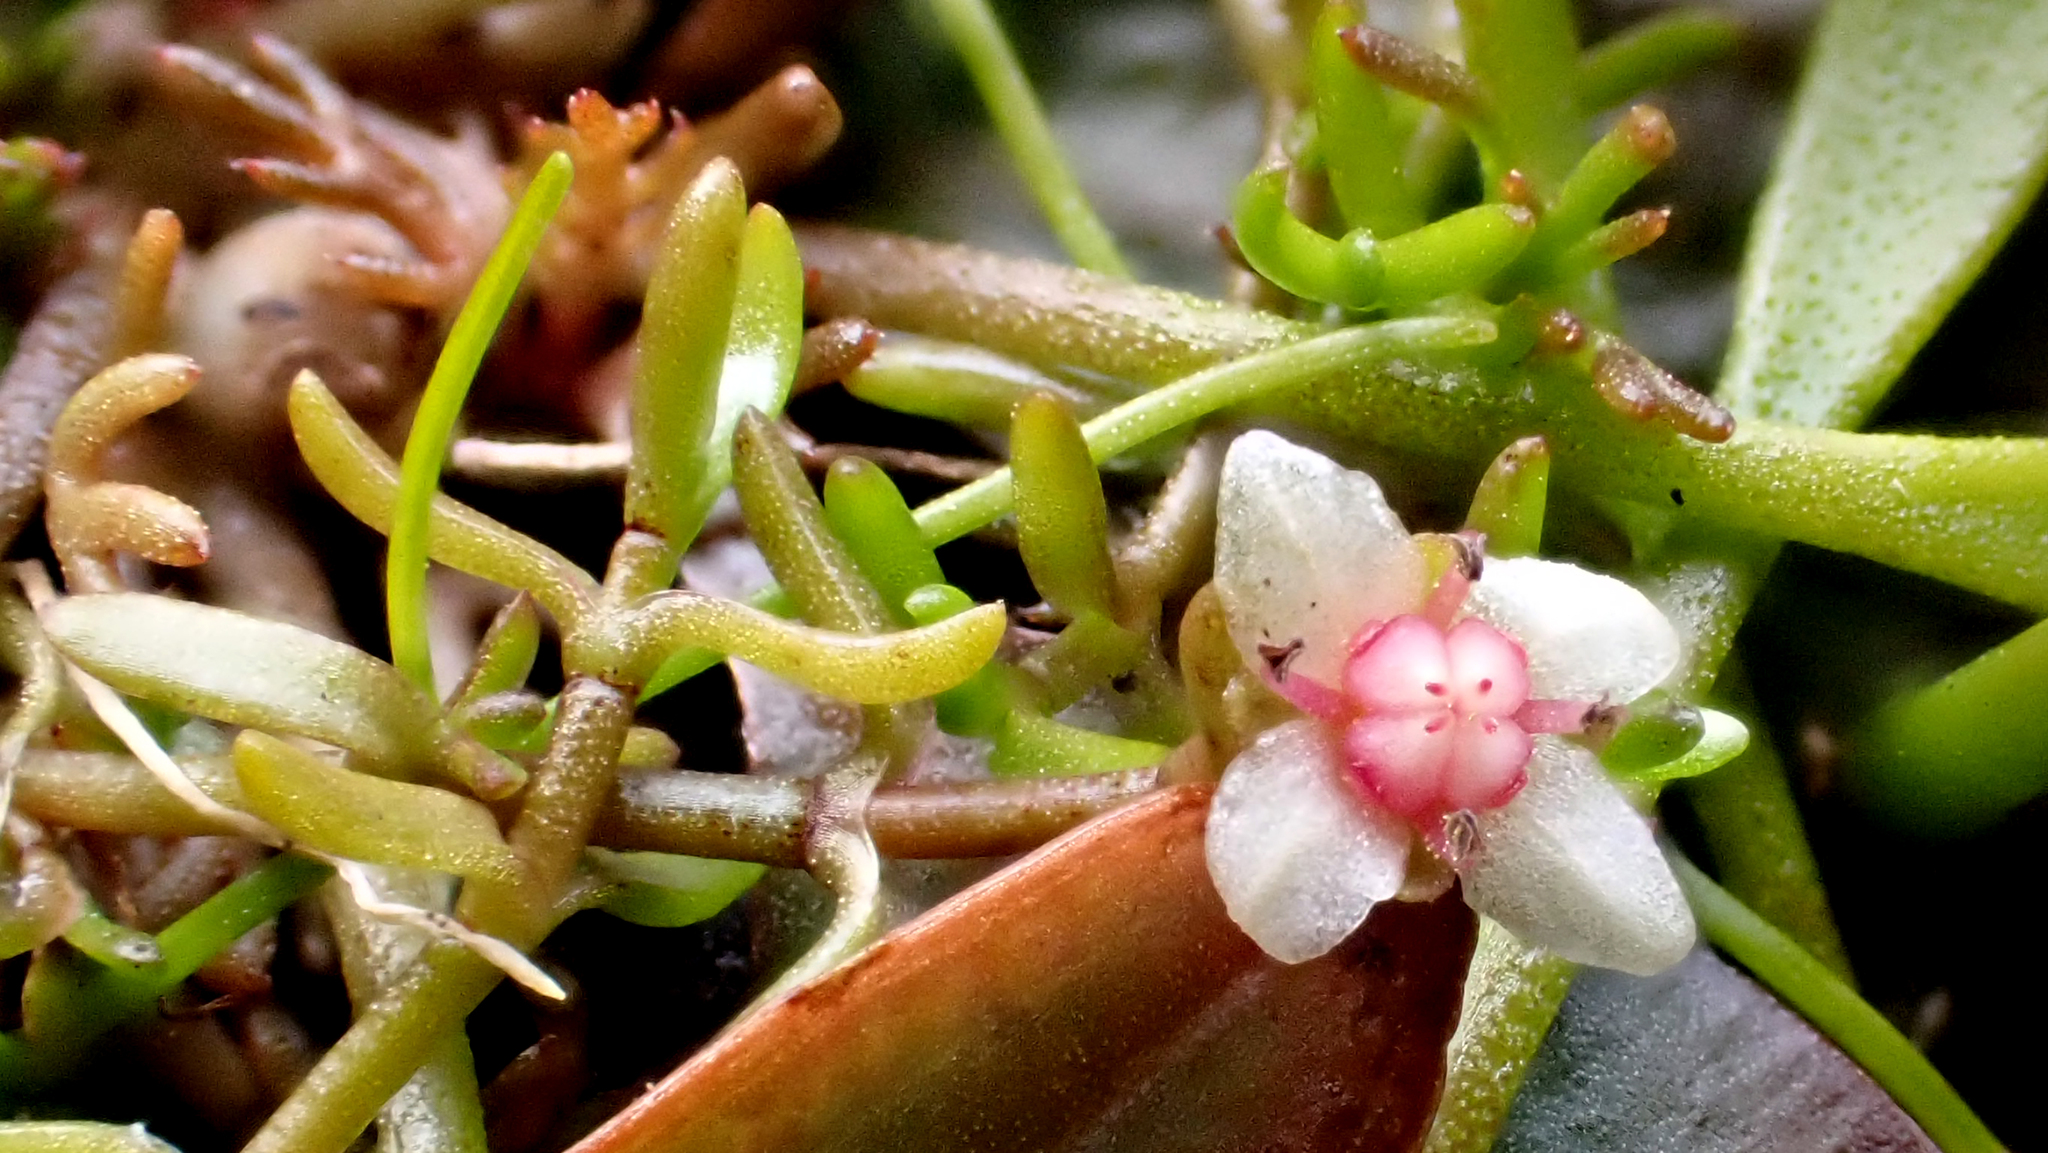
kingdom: Plantae
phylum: Tracheophyta
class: Magnoliopsida
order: Saxifragales
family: Crassulaceae
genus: Crassula
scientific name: Crassula sinclairii
